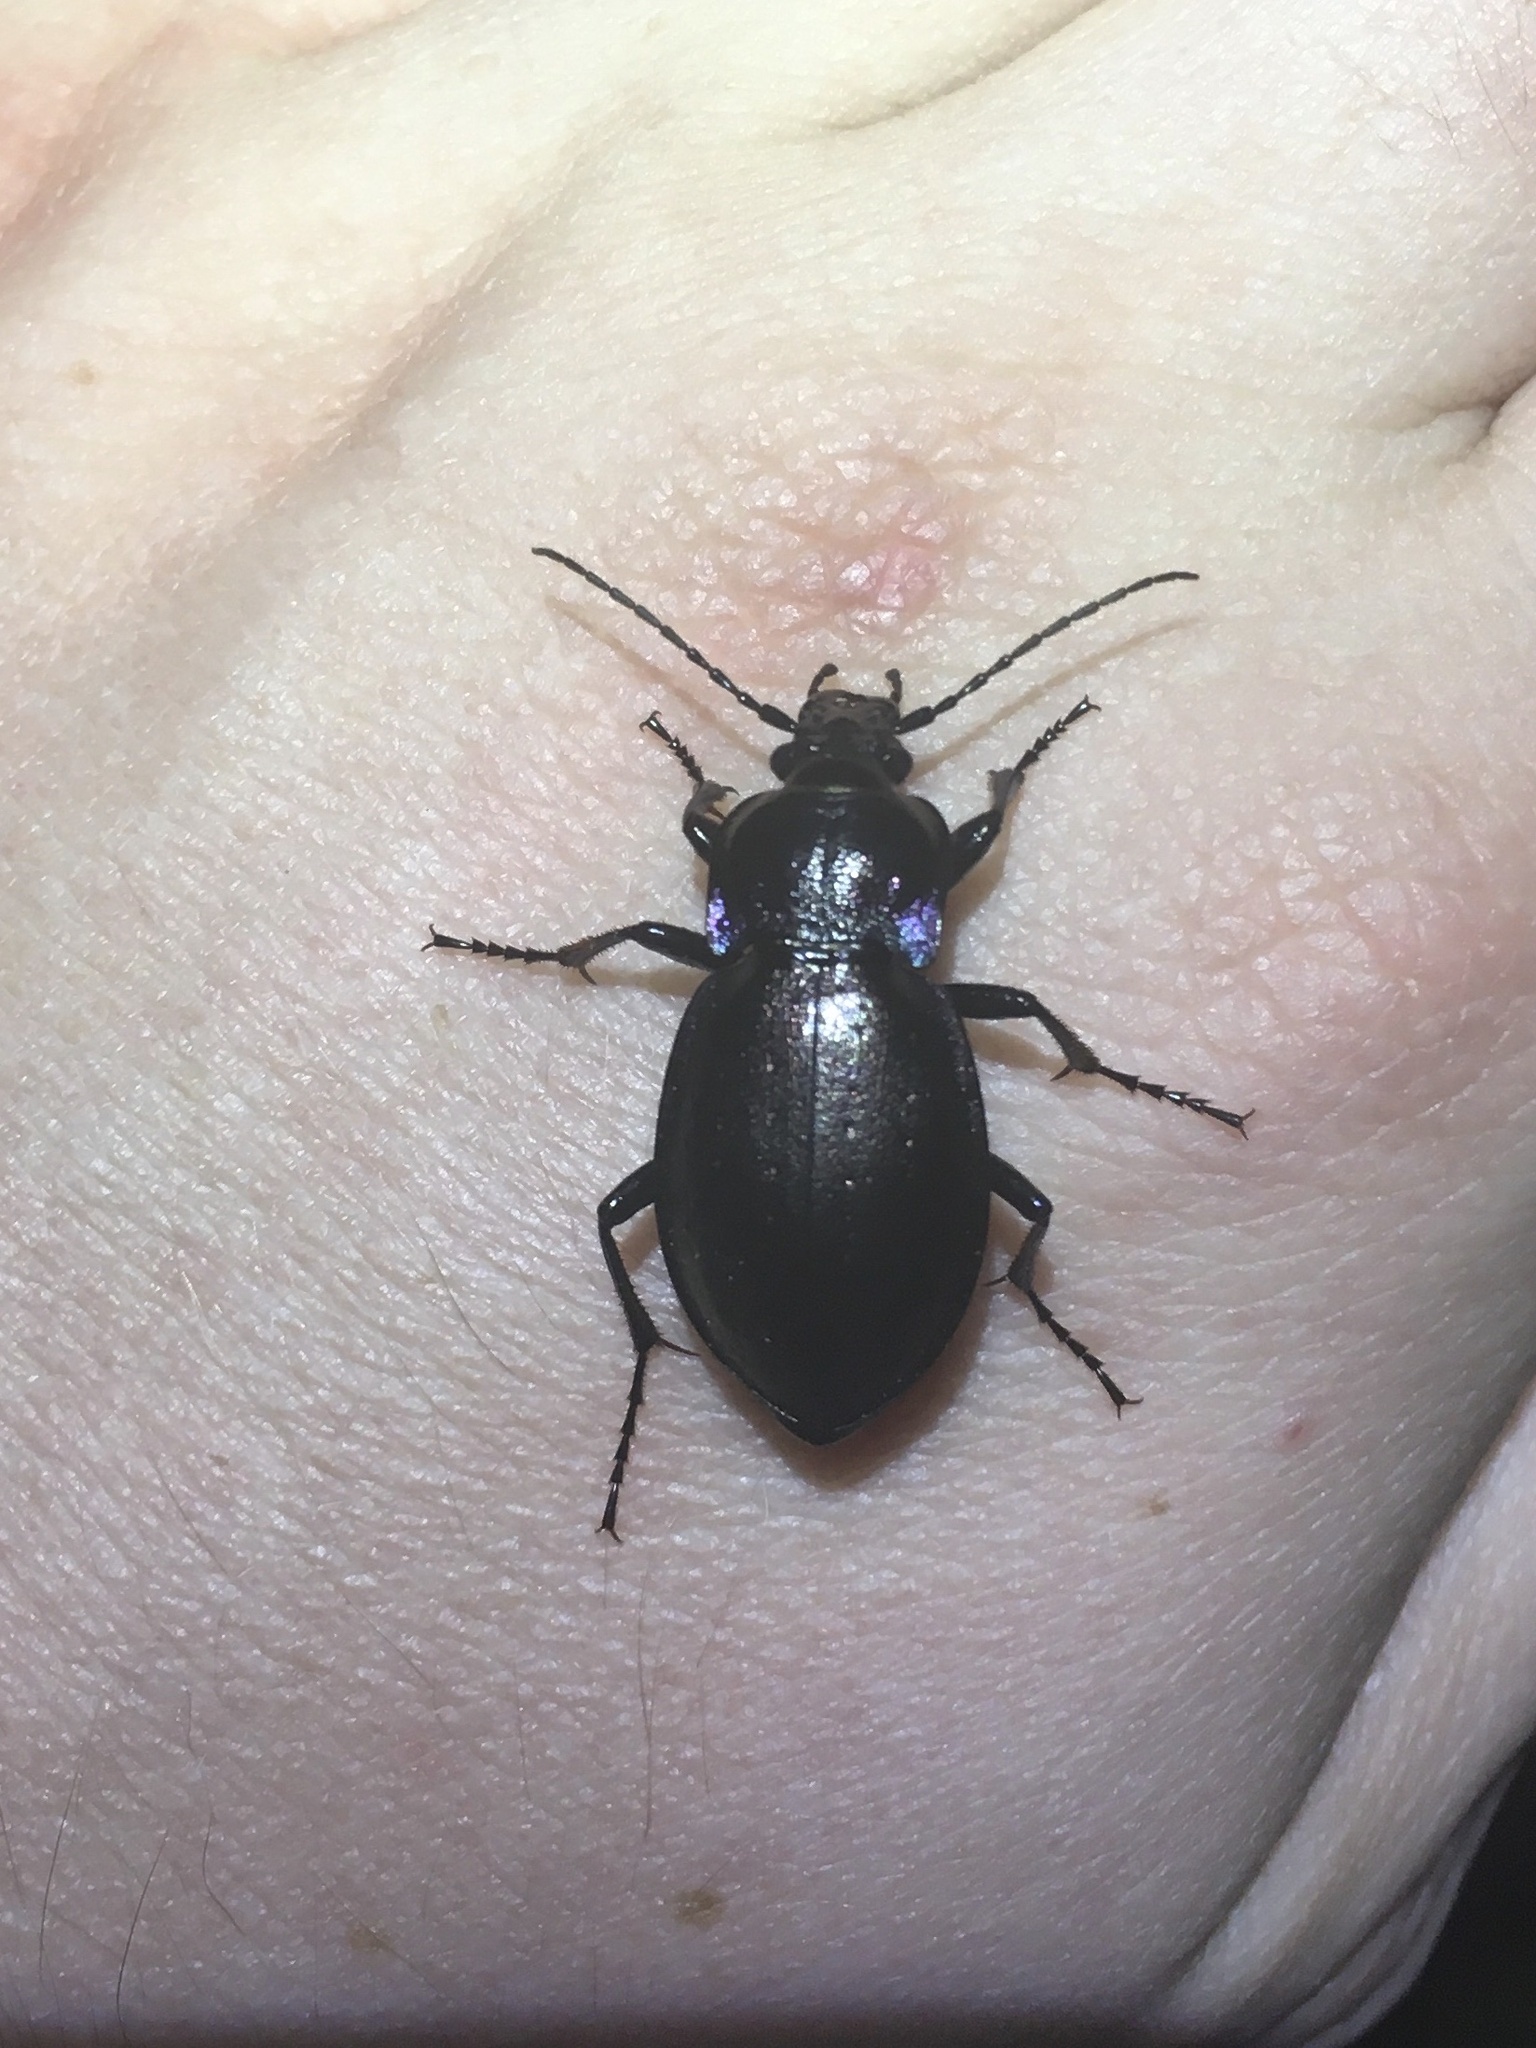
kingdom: Animalia
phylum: Arthropoda
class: Insecta
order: Coleoptera
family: Carabidae
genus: Carabus
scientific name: Carabus nemoralis
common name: European ground beetle
